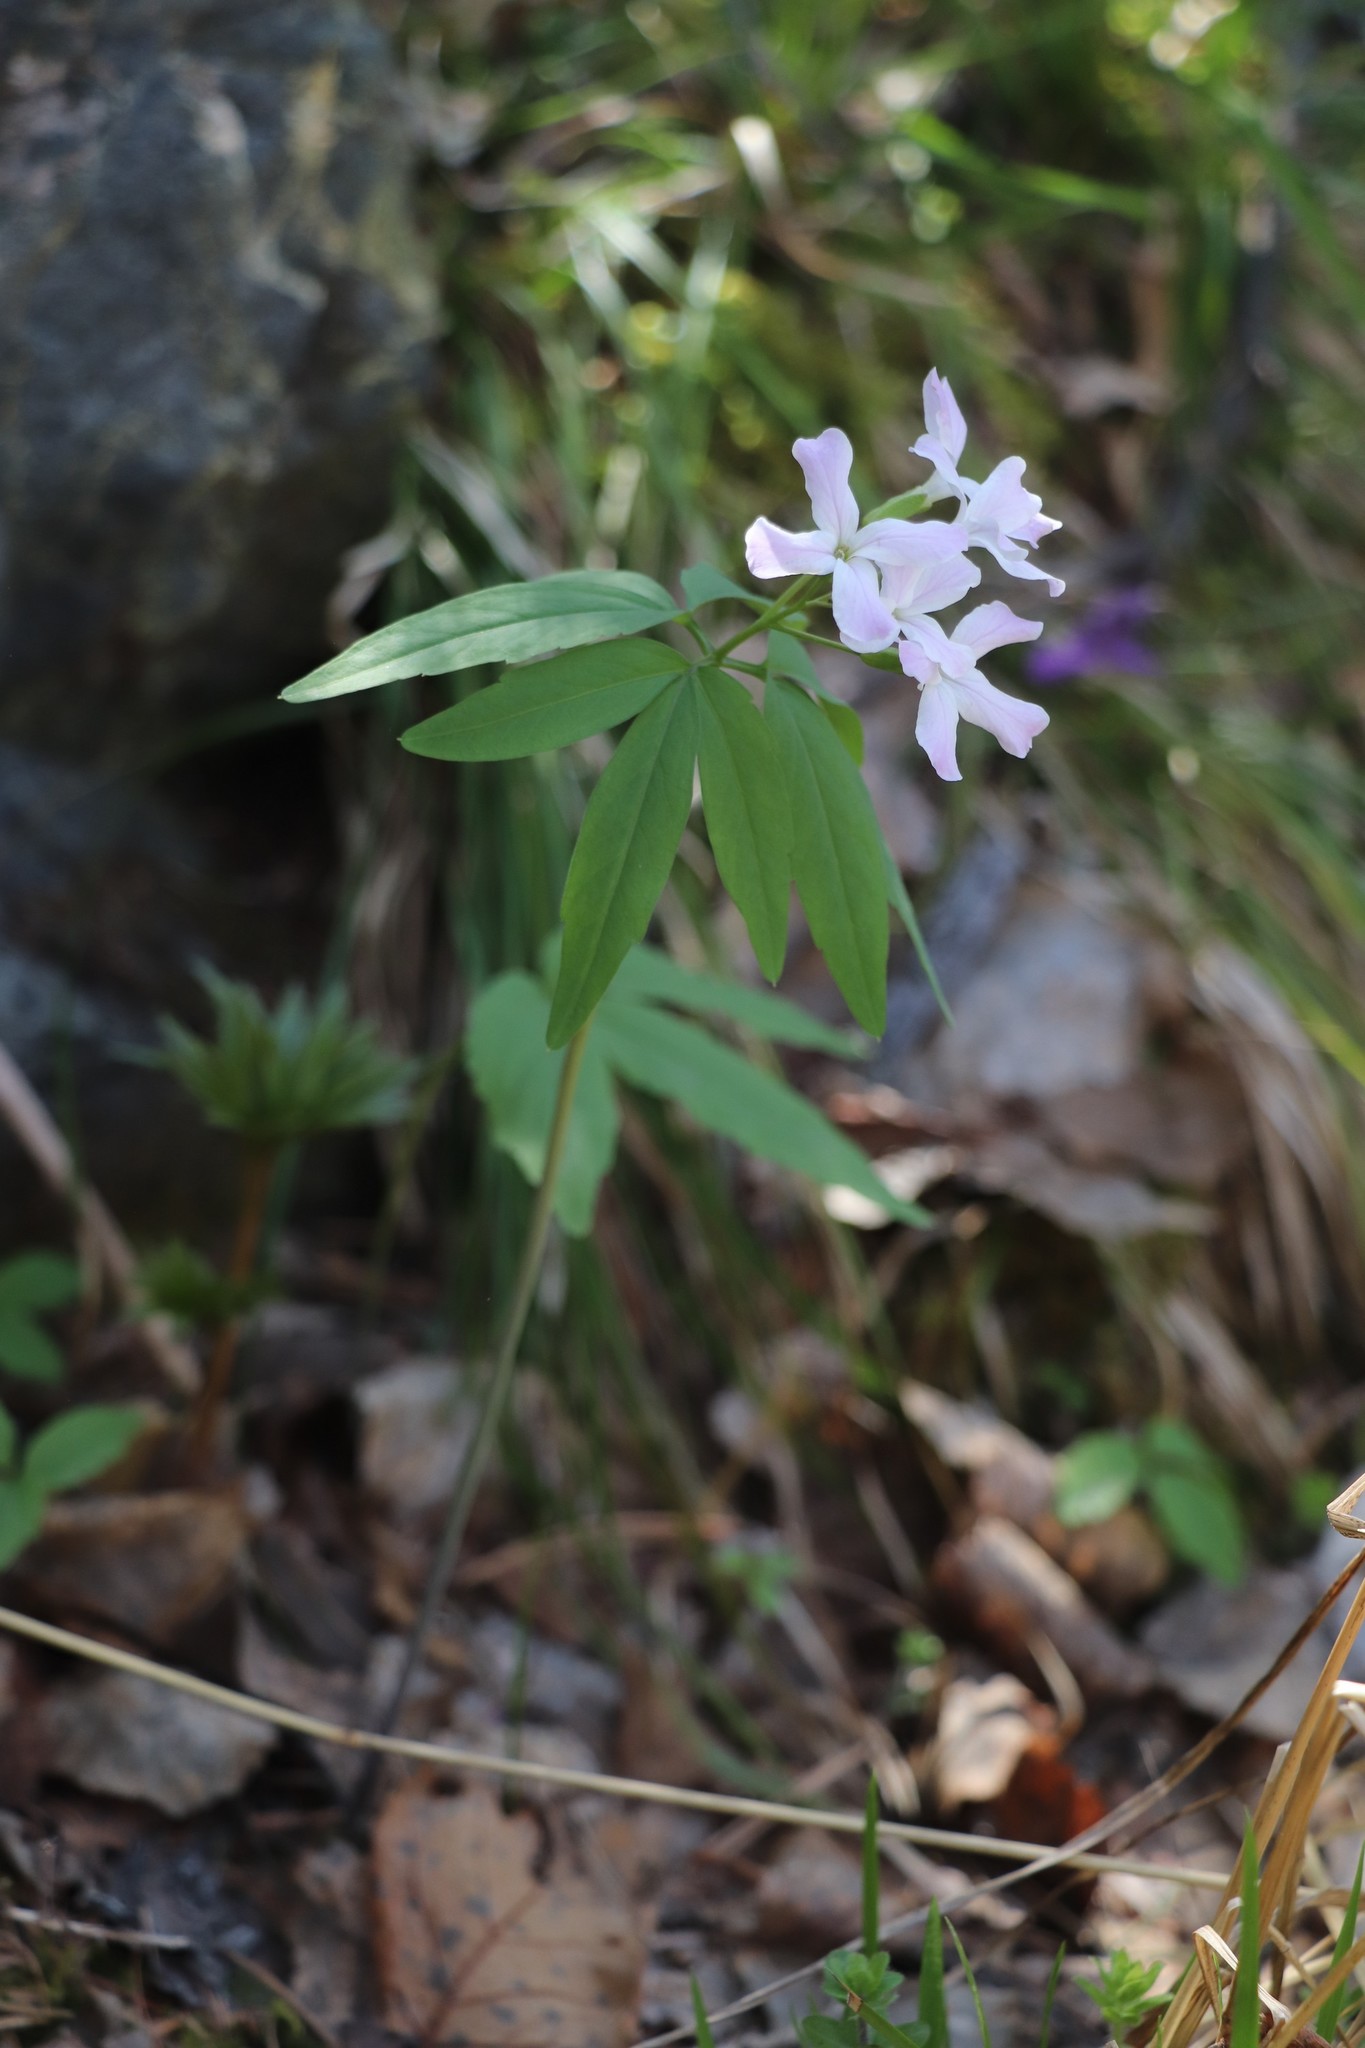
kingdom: Plantae
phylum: Tracheophyta
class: Magnoliopsida
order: Brassicales
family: Brassicaceae
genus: Cardamine
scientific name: Cardamine altaica
